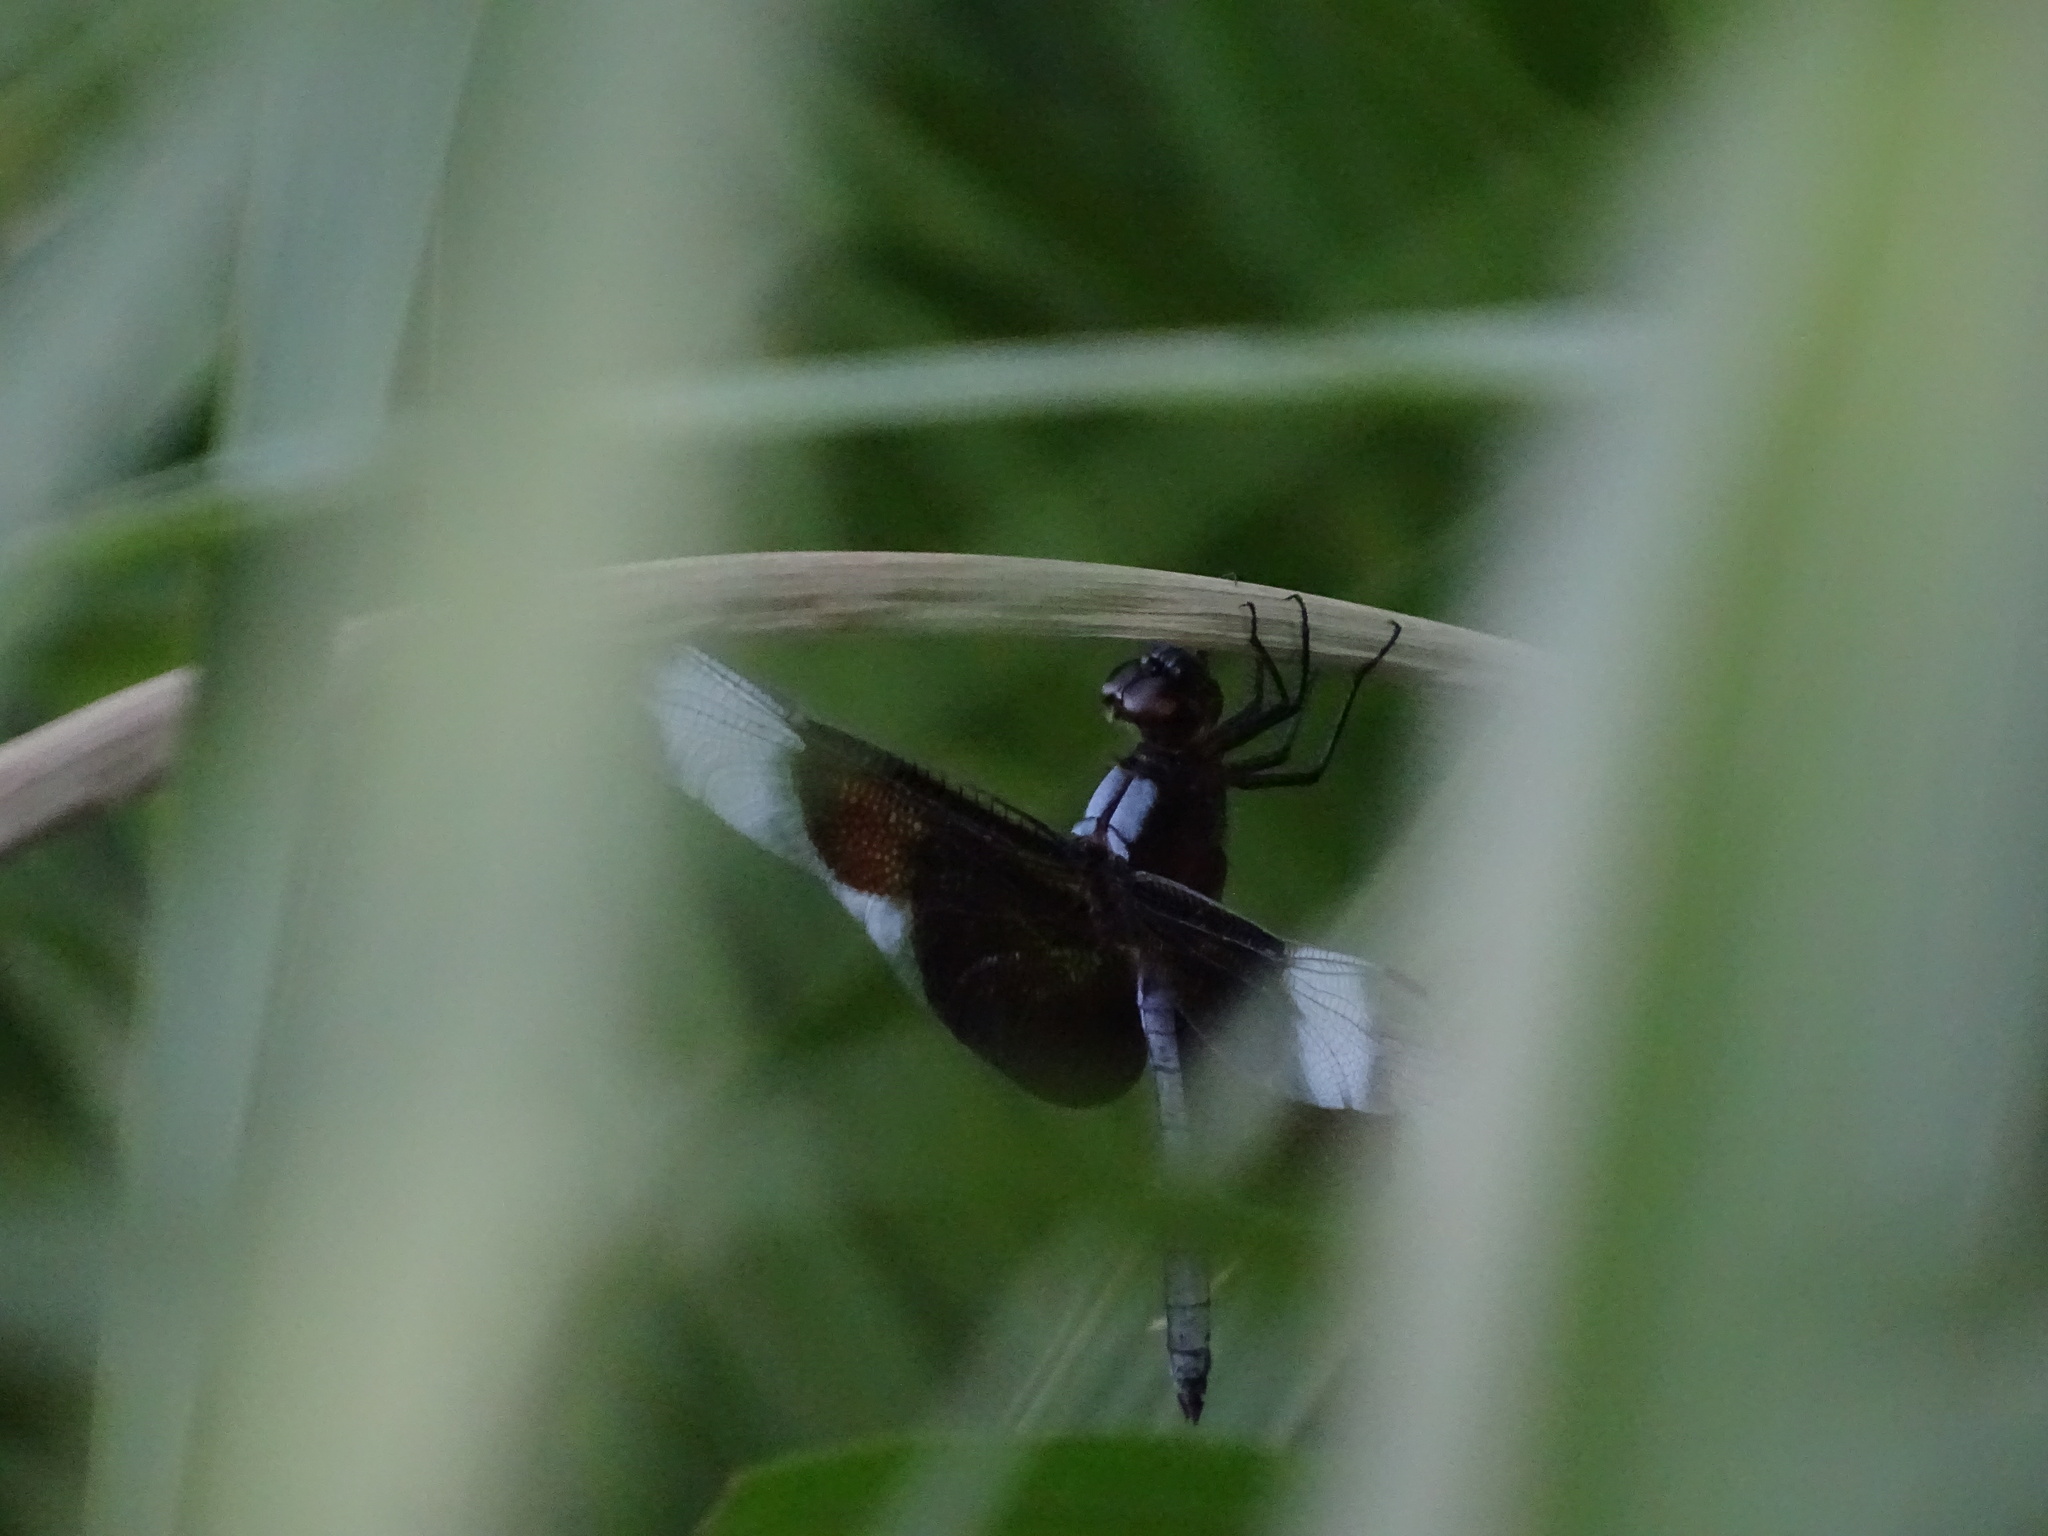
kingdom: Animalia
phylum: Arthropoda
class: Insecta
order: Odonata
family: Libellulidae
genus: Libellula
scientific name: Libellula luctuosa
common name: Widow skimmer
